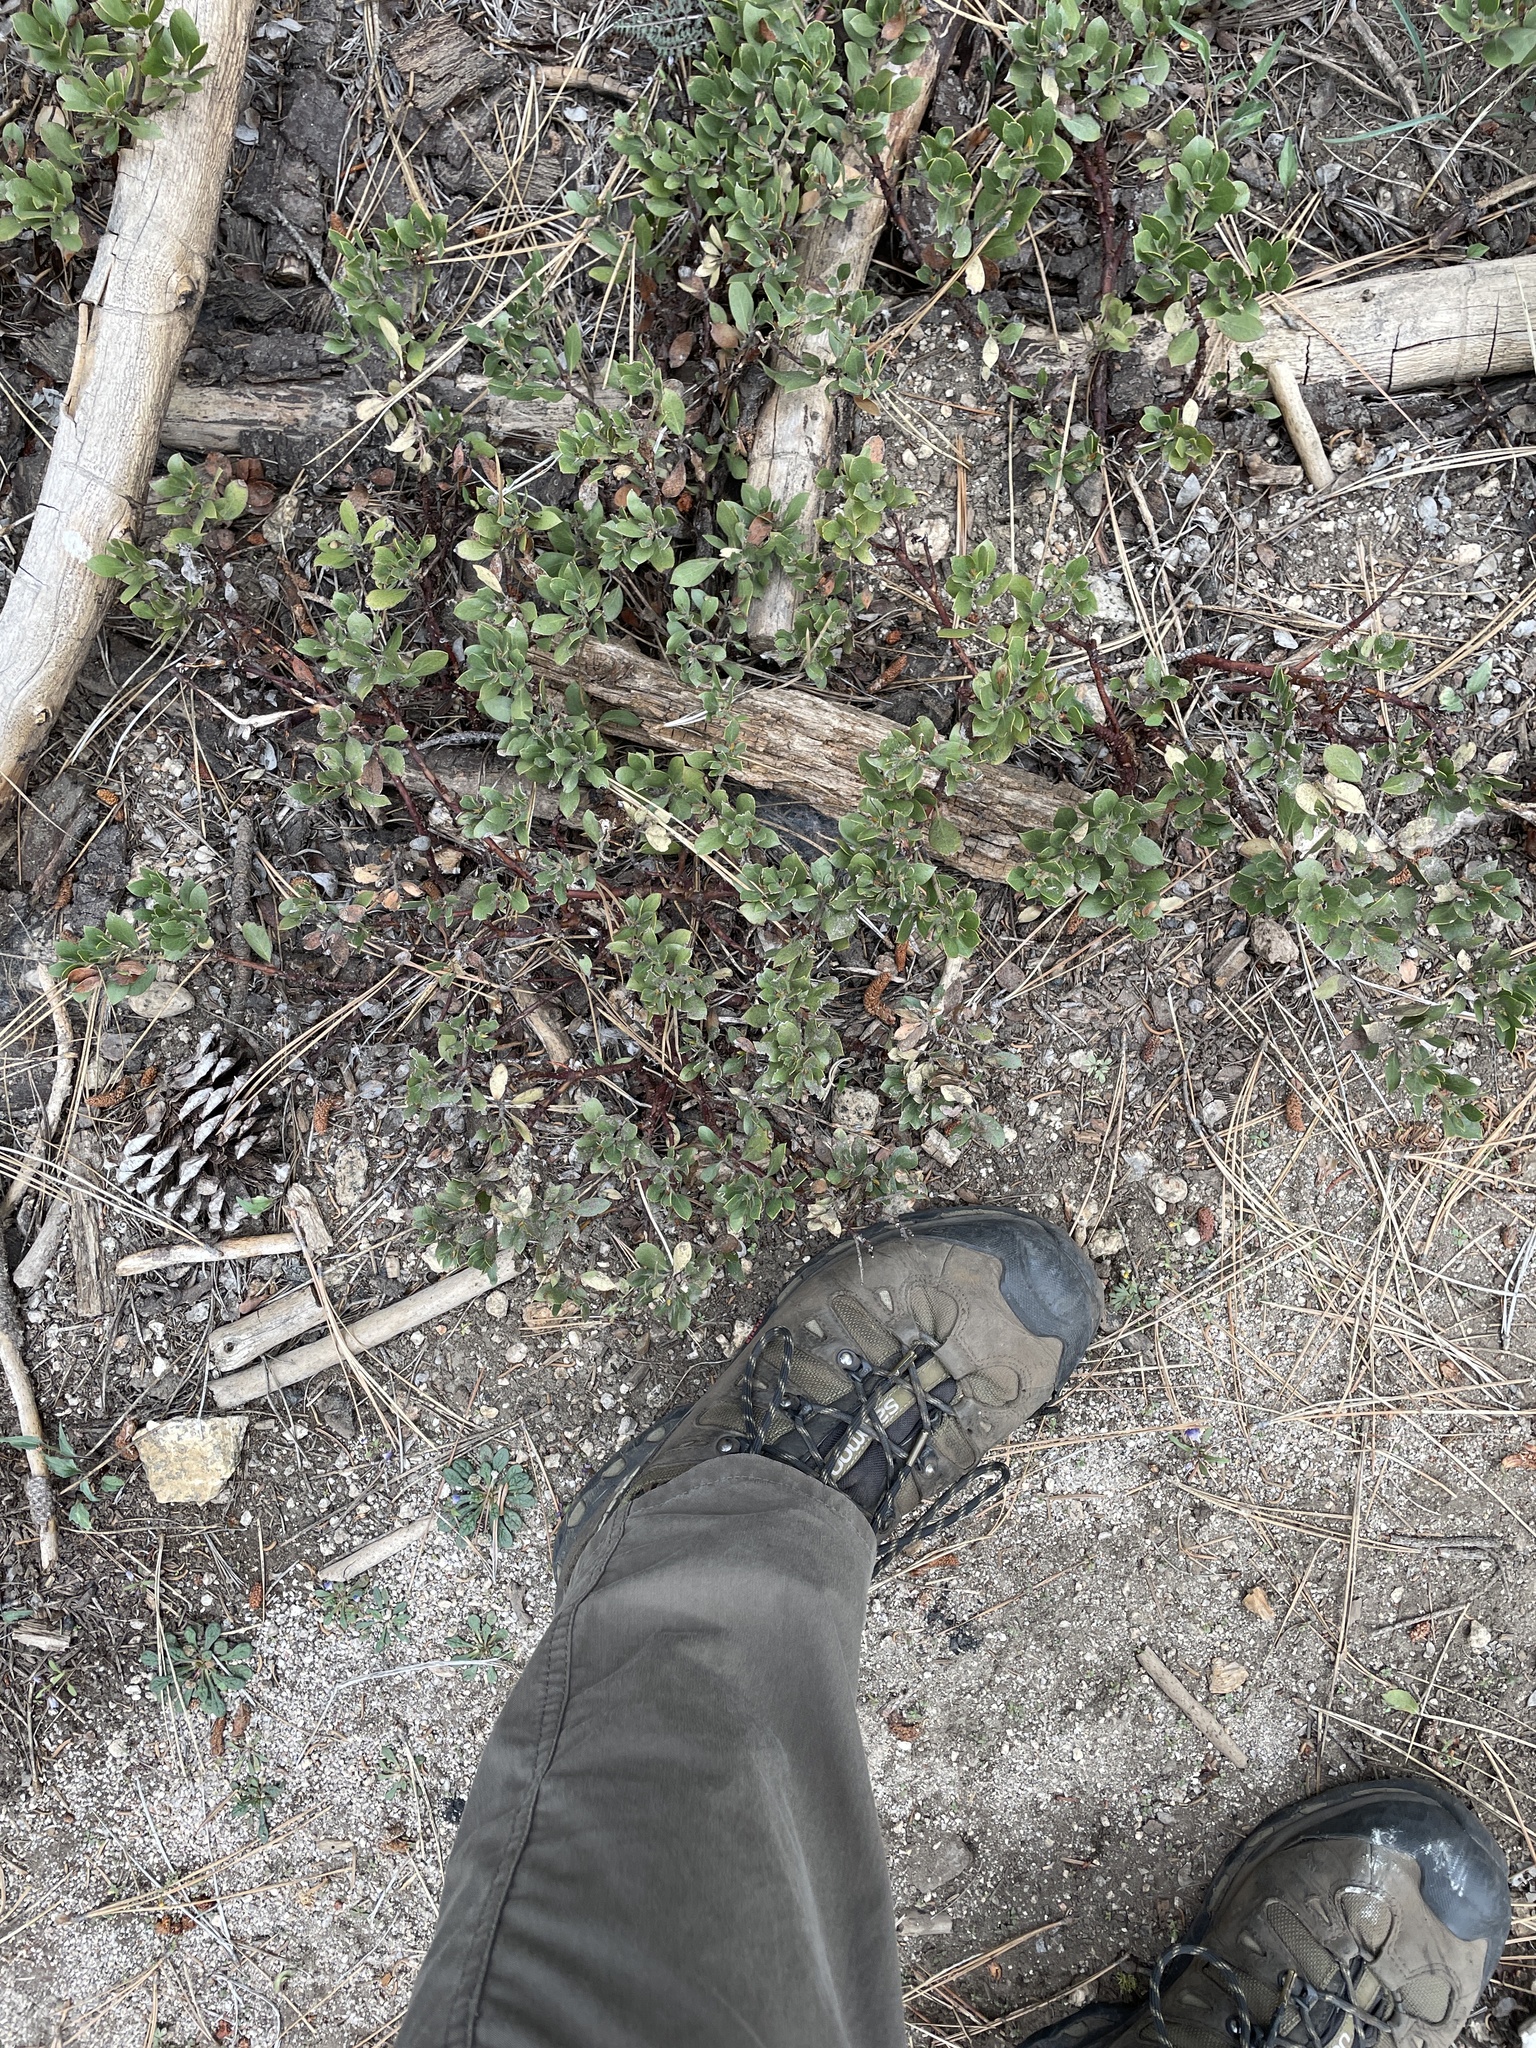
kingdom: Plantae
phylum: Tracheophyta
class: Magnoliopsida
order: Ericales
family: Ericaceae
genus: Arctostaphylos
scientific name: Arctostaphylos nevadensis
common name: Pinemat manzanita
